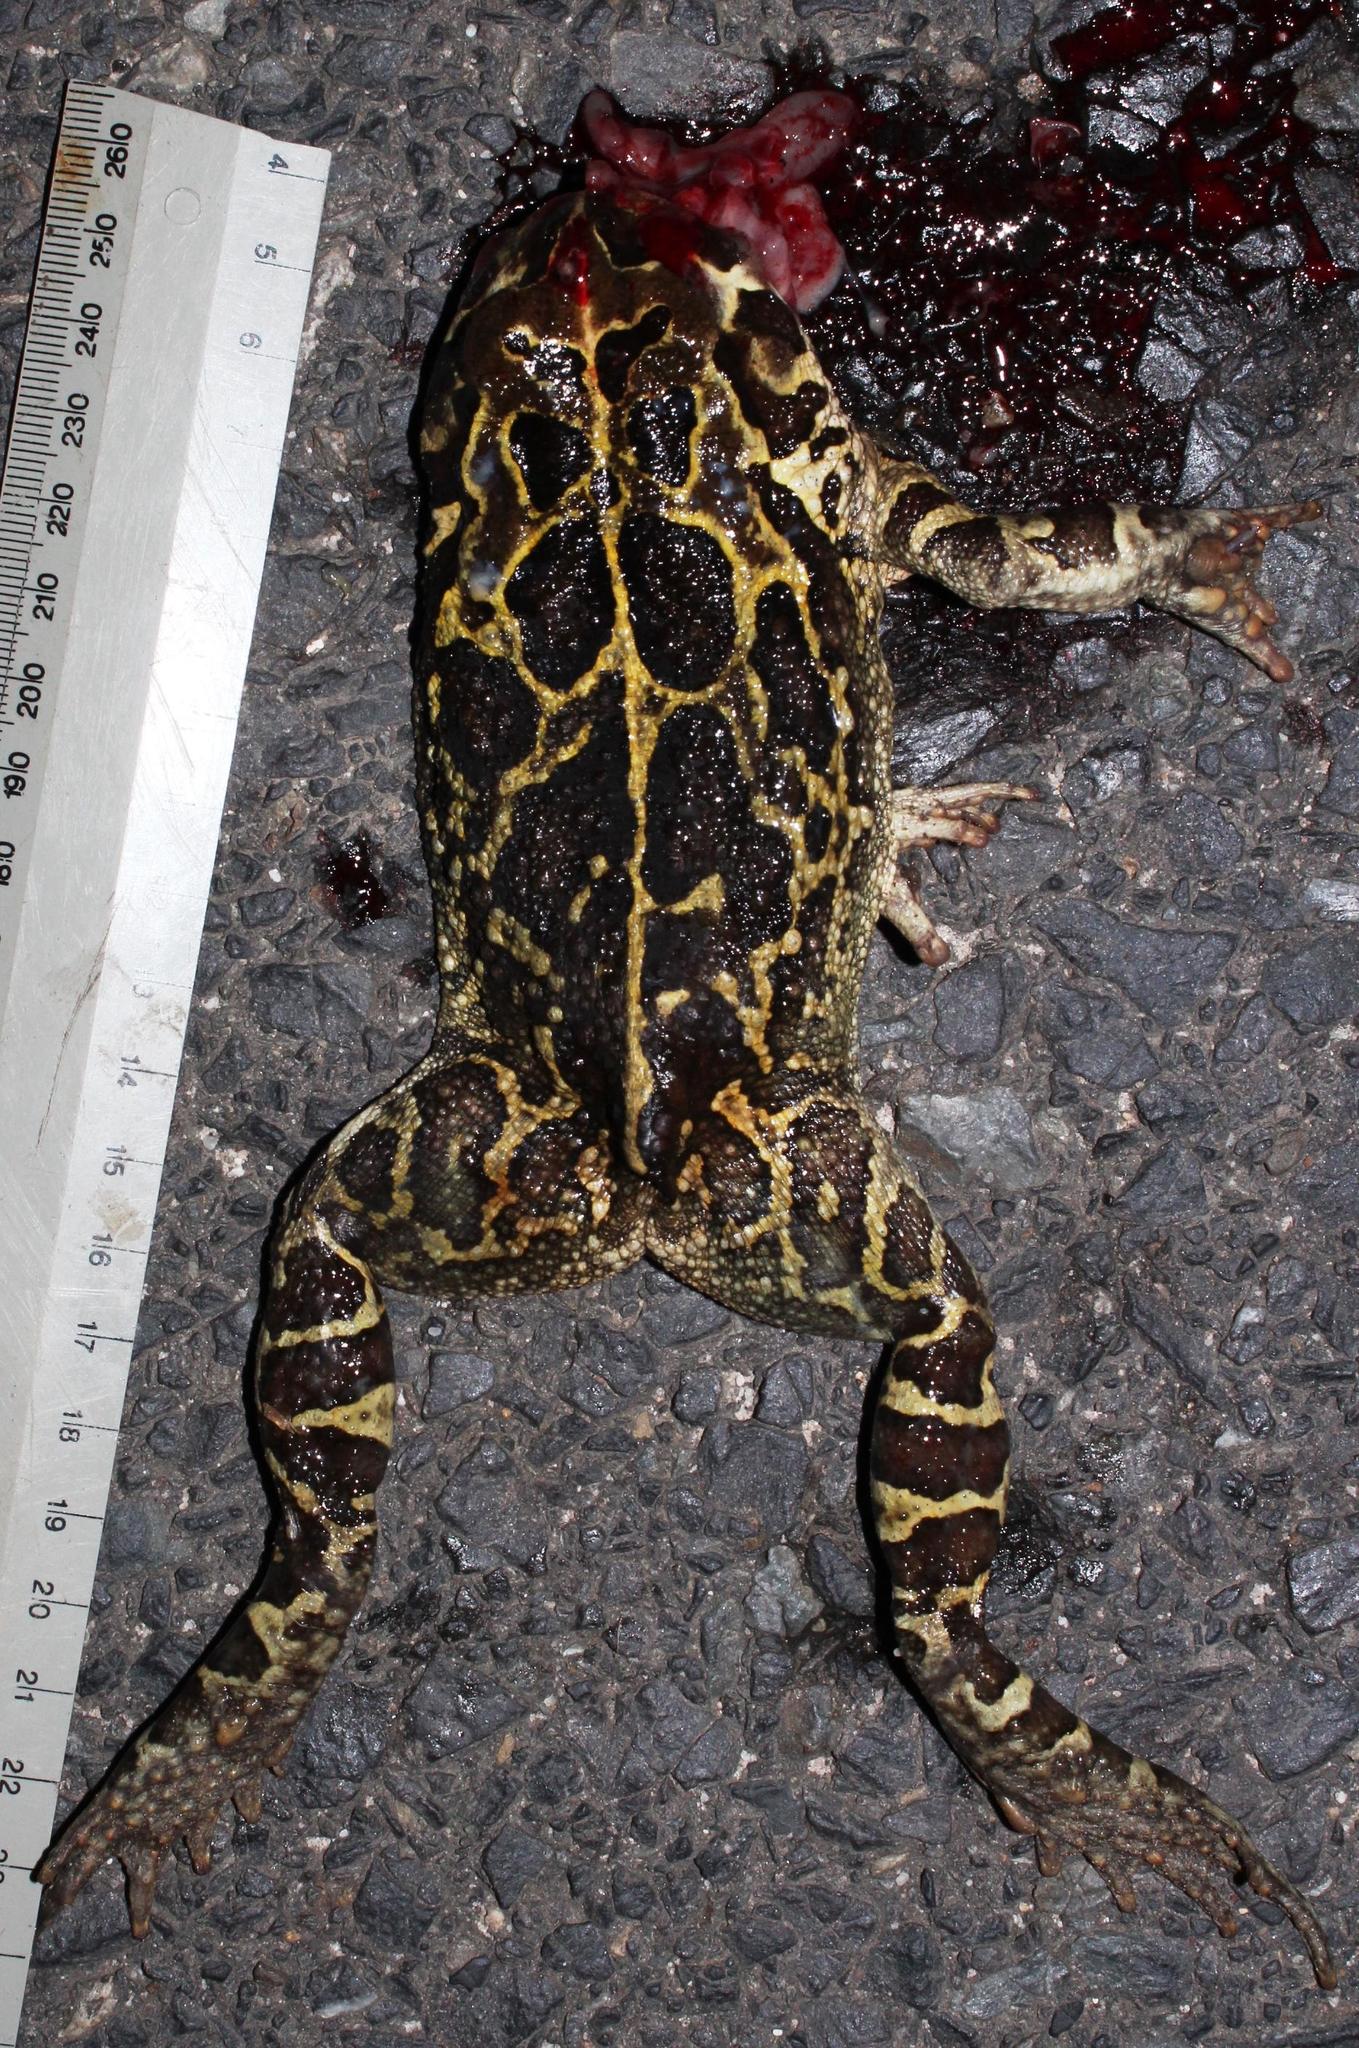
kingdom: Animalia
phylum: Chordata
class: Amphibia
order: Anura
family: Bufonidae
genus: Sclerophrys
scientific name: Sclerophrys pantherina
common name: Panther toad
